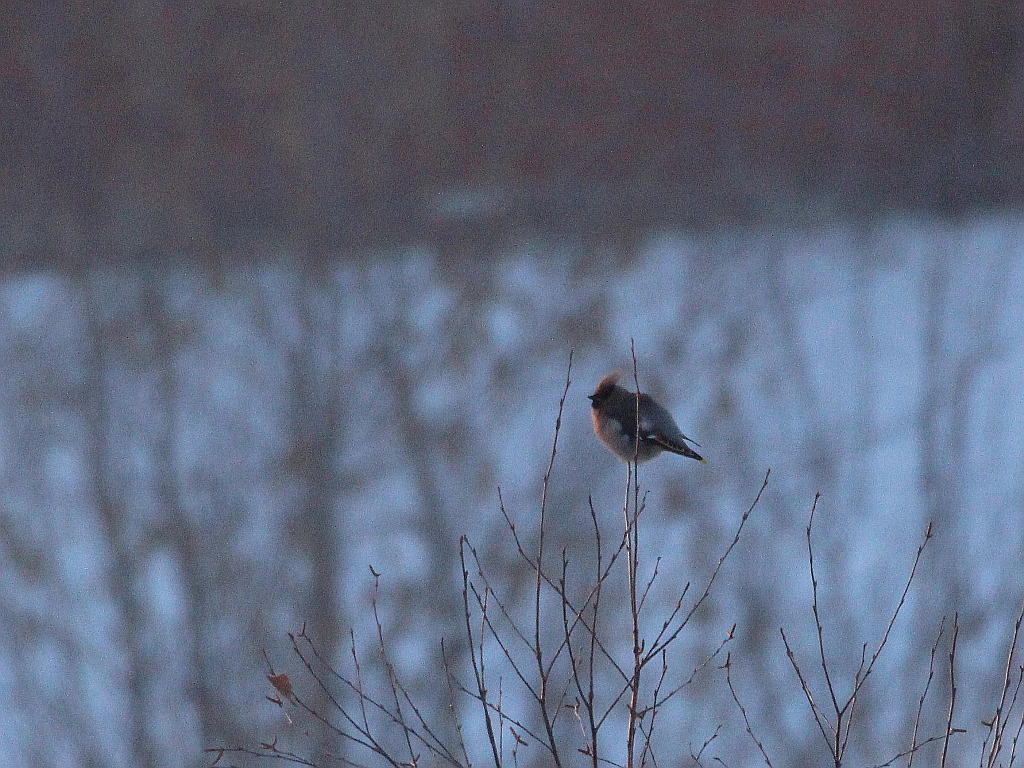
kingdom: Animalia
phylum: Chordata
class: Aves
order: Passeriformes
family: Bombycillidae
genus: Bombycilla
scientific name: Bombycilla garrulus
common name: Bohemian waxwing
